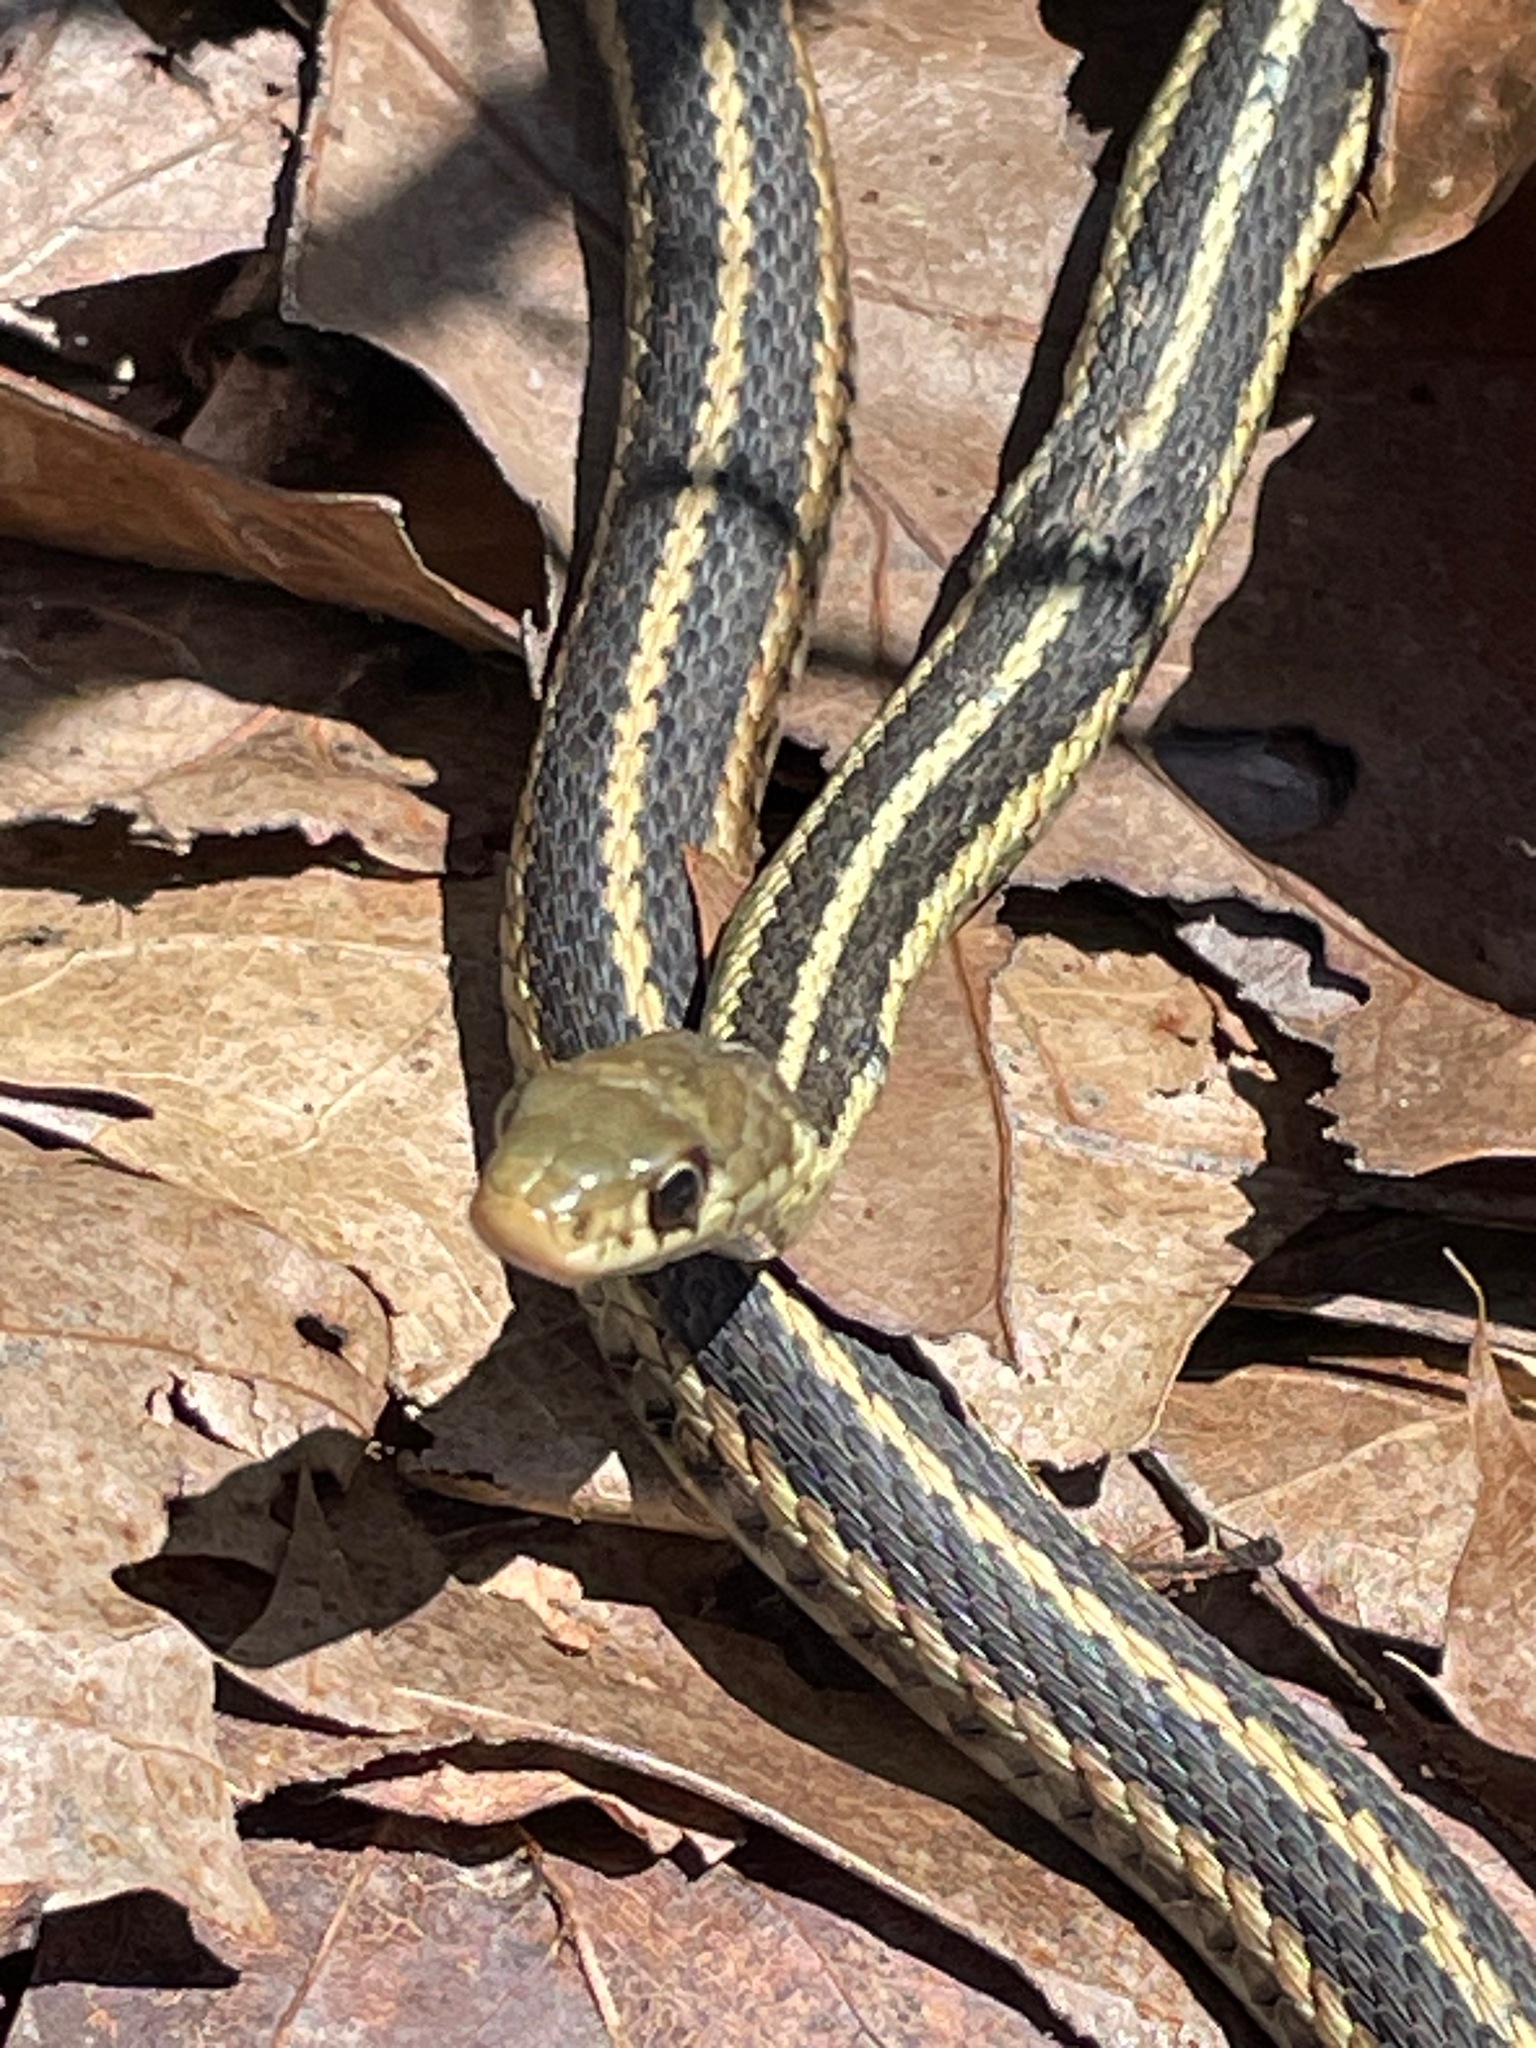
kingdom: Animalia
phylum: Chordata
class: Squamata
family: Colubridae
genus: Thamnophis
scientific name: Thamnophis sirtalis
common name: Common garter snake
